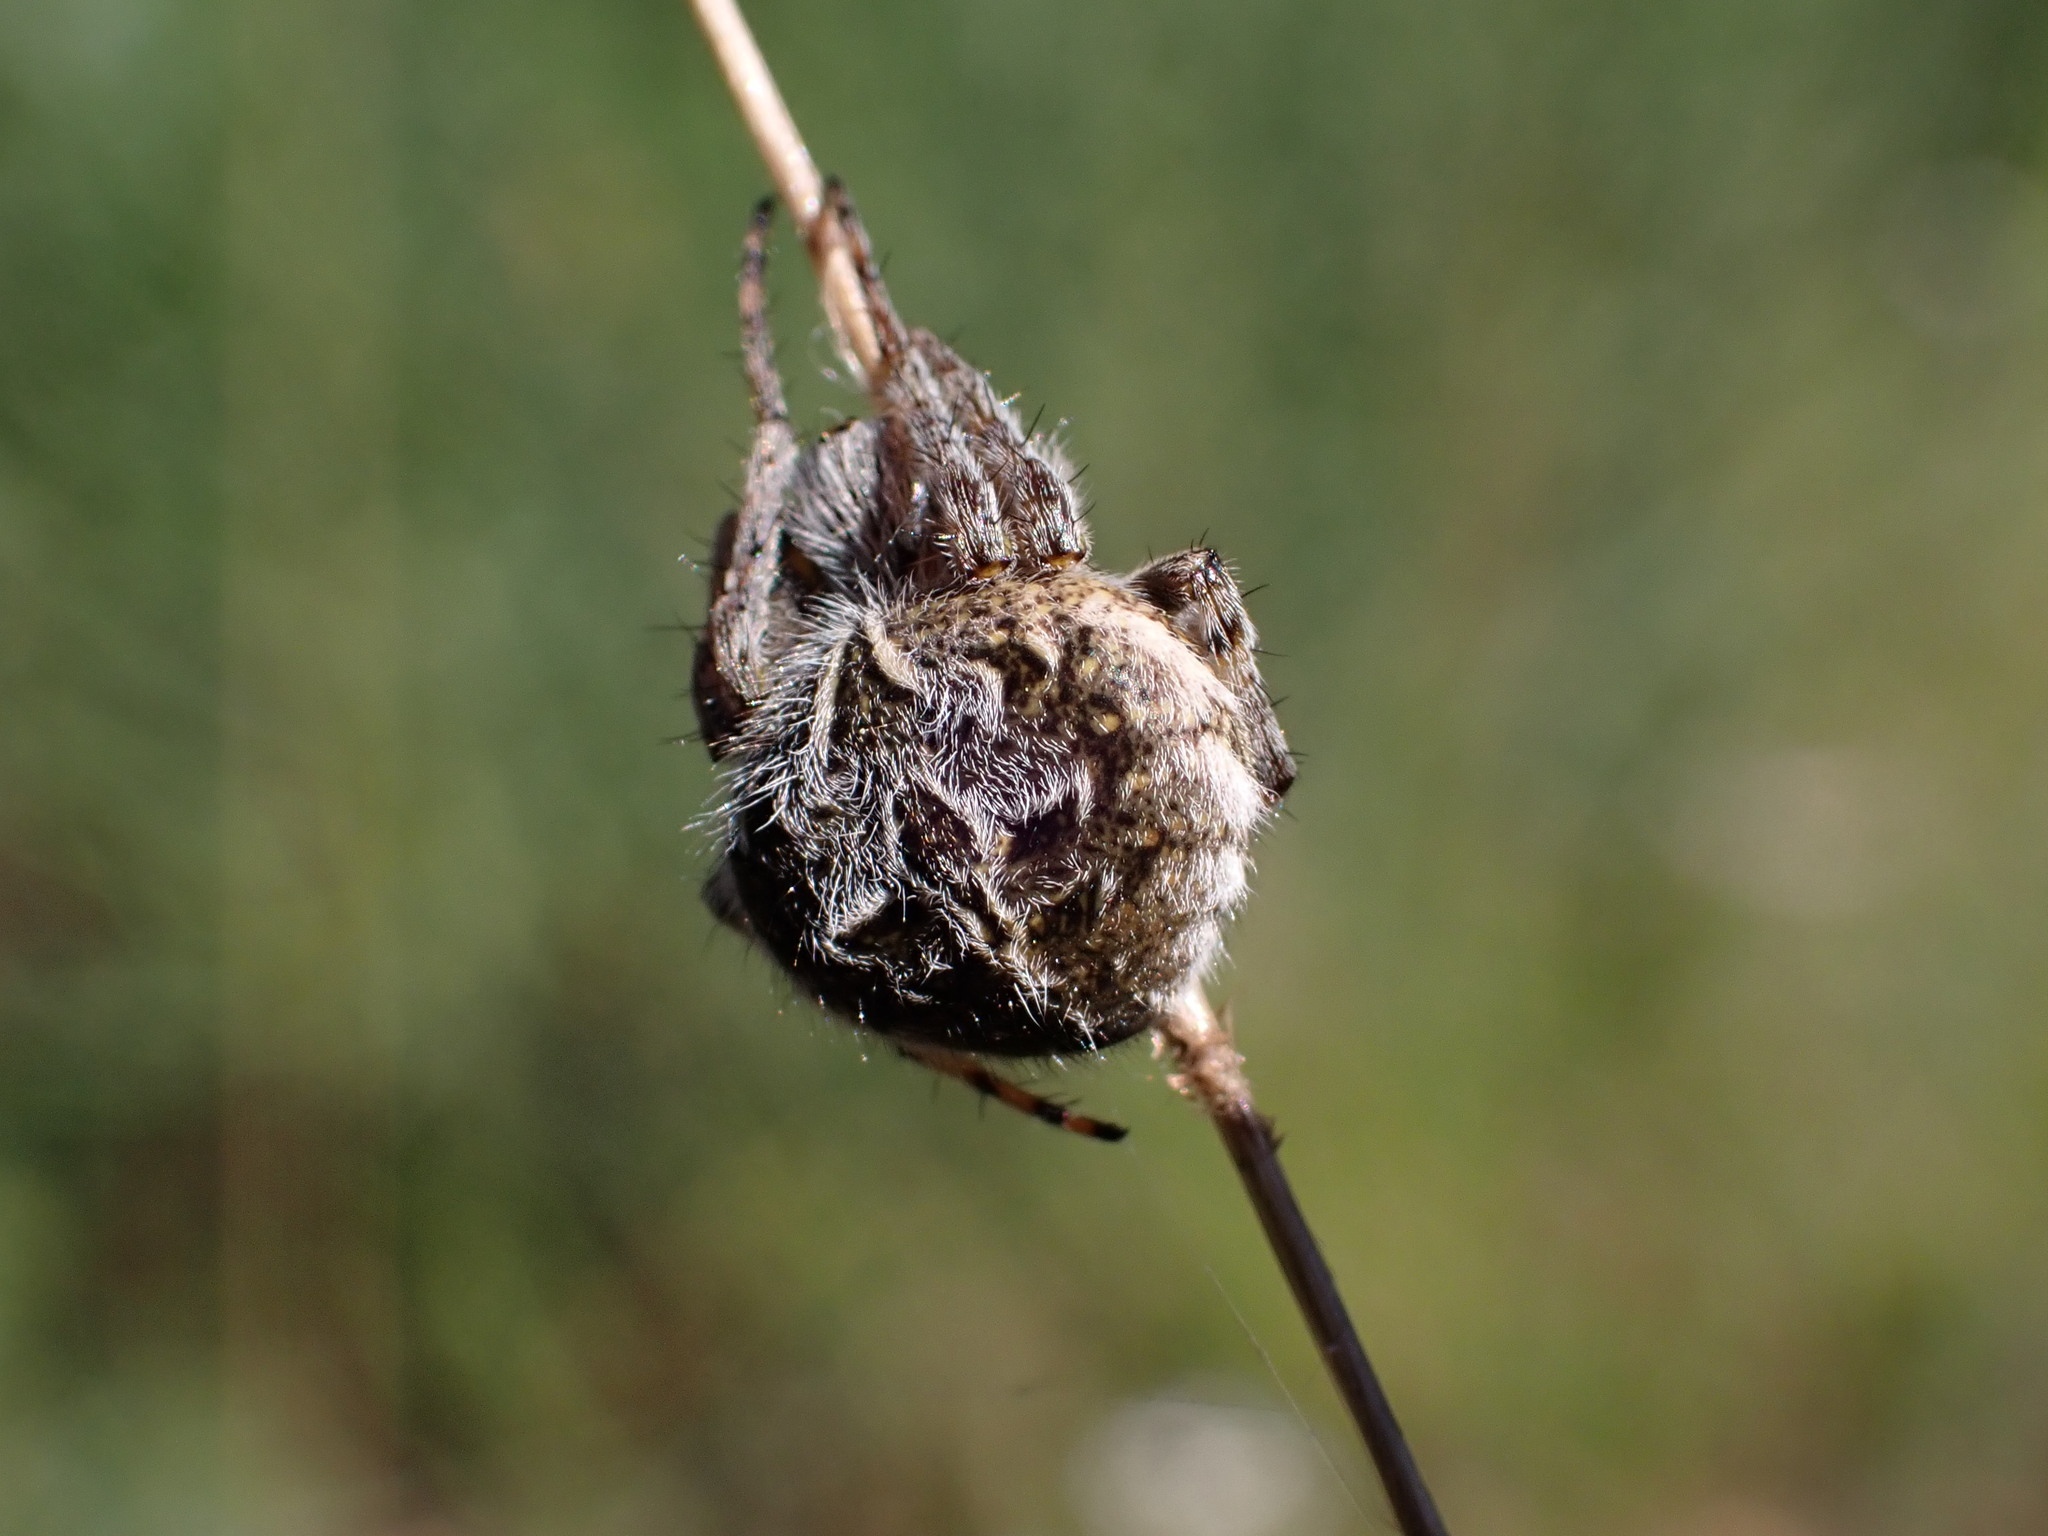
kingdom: Animalia
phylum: Arthropoda
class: Arachnida
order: Araneae
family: Araneidae
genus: Agalenatea
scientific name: Agalenatea redii
